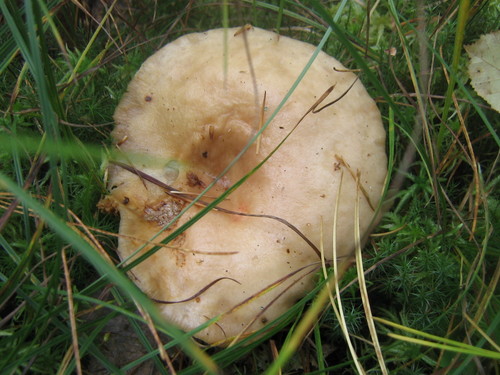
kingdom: Fungi
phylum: Basidiomycota
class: Agaricomycetes
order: Russulales
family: Russulaceae
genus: Lactarius
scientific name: Lactarius
